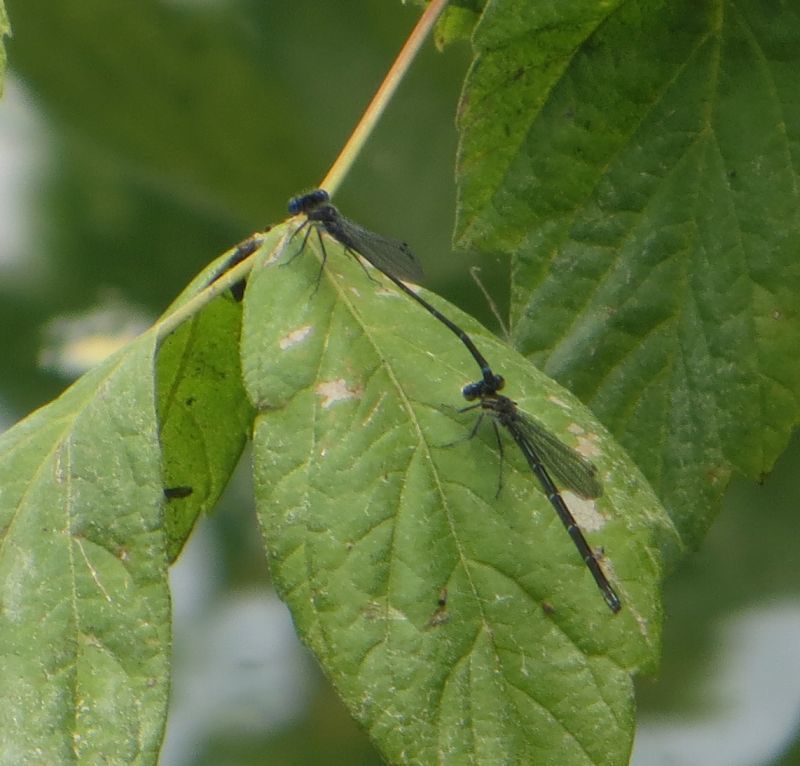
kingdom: Animalia
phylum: Arthropoda
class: Insecta
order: Odonata
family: Coenagrionidae
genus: Argia
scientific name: Argia translata
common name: Dusky dancer
